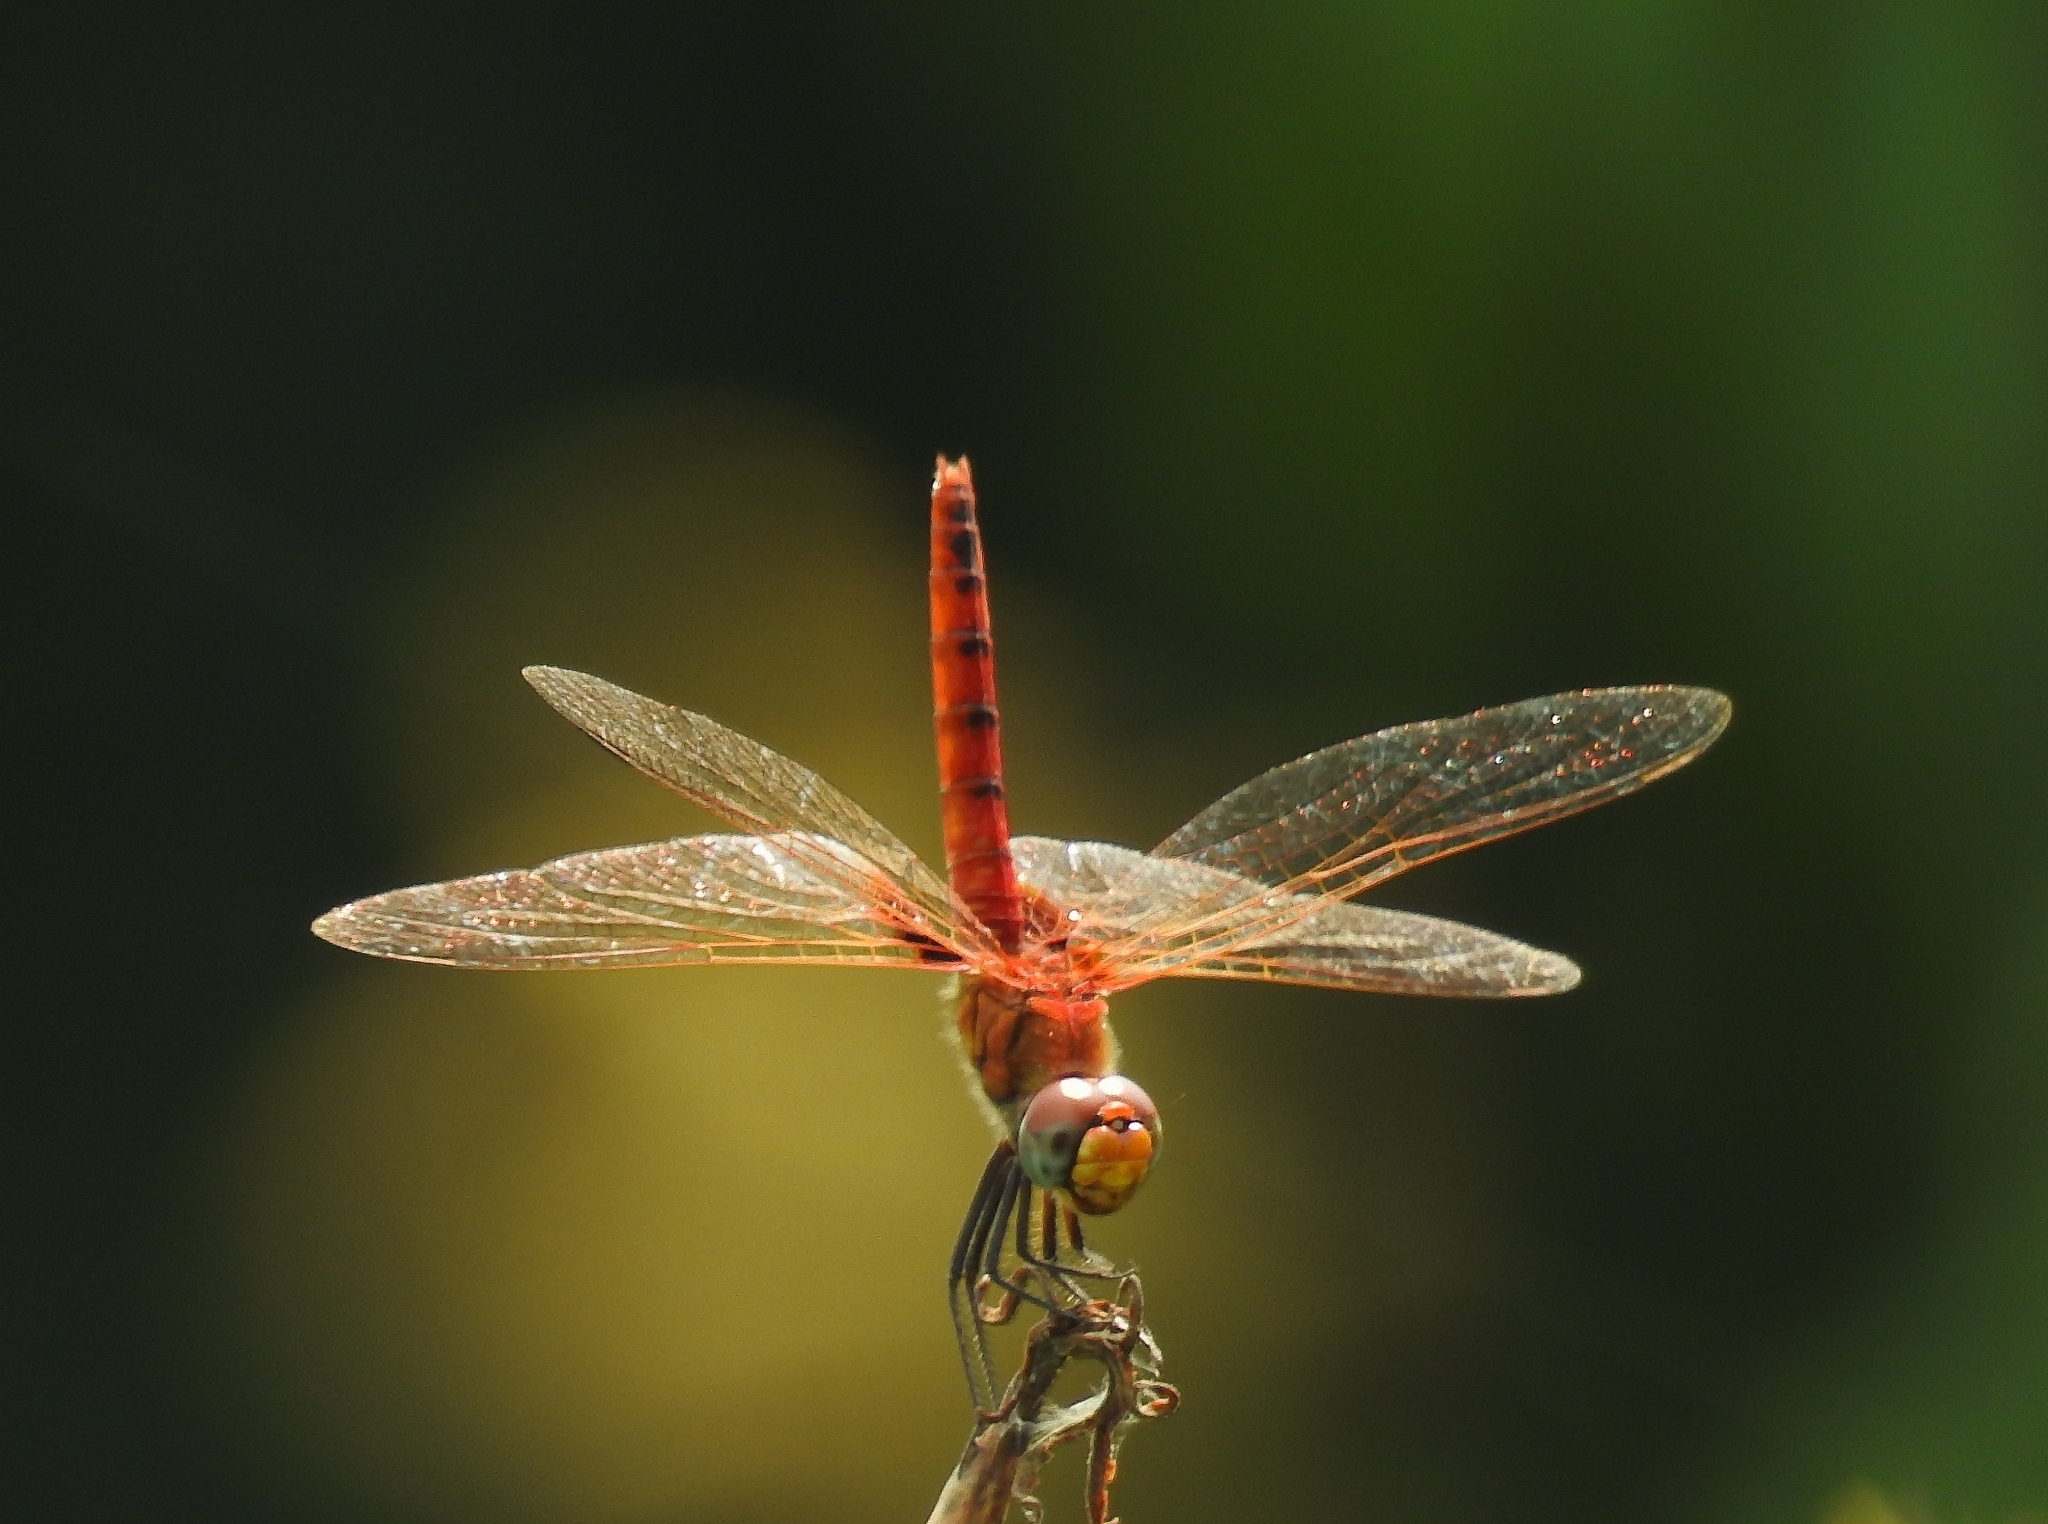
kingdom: Animalia
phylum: Arthropoda
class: Insecta
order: Odonata
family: Libellulidae
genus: Urothemis
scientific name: Urothemis signata
